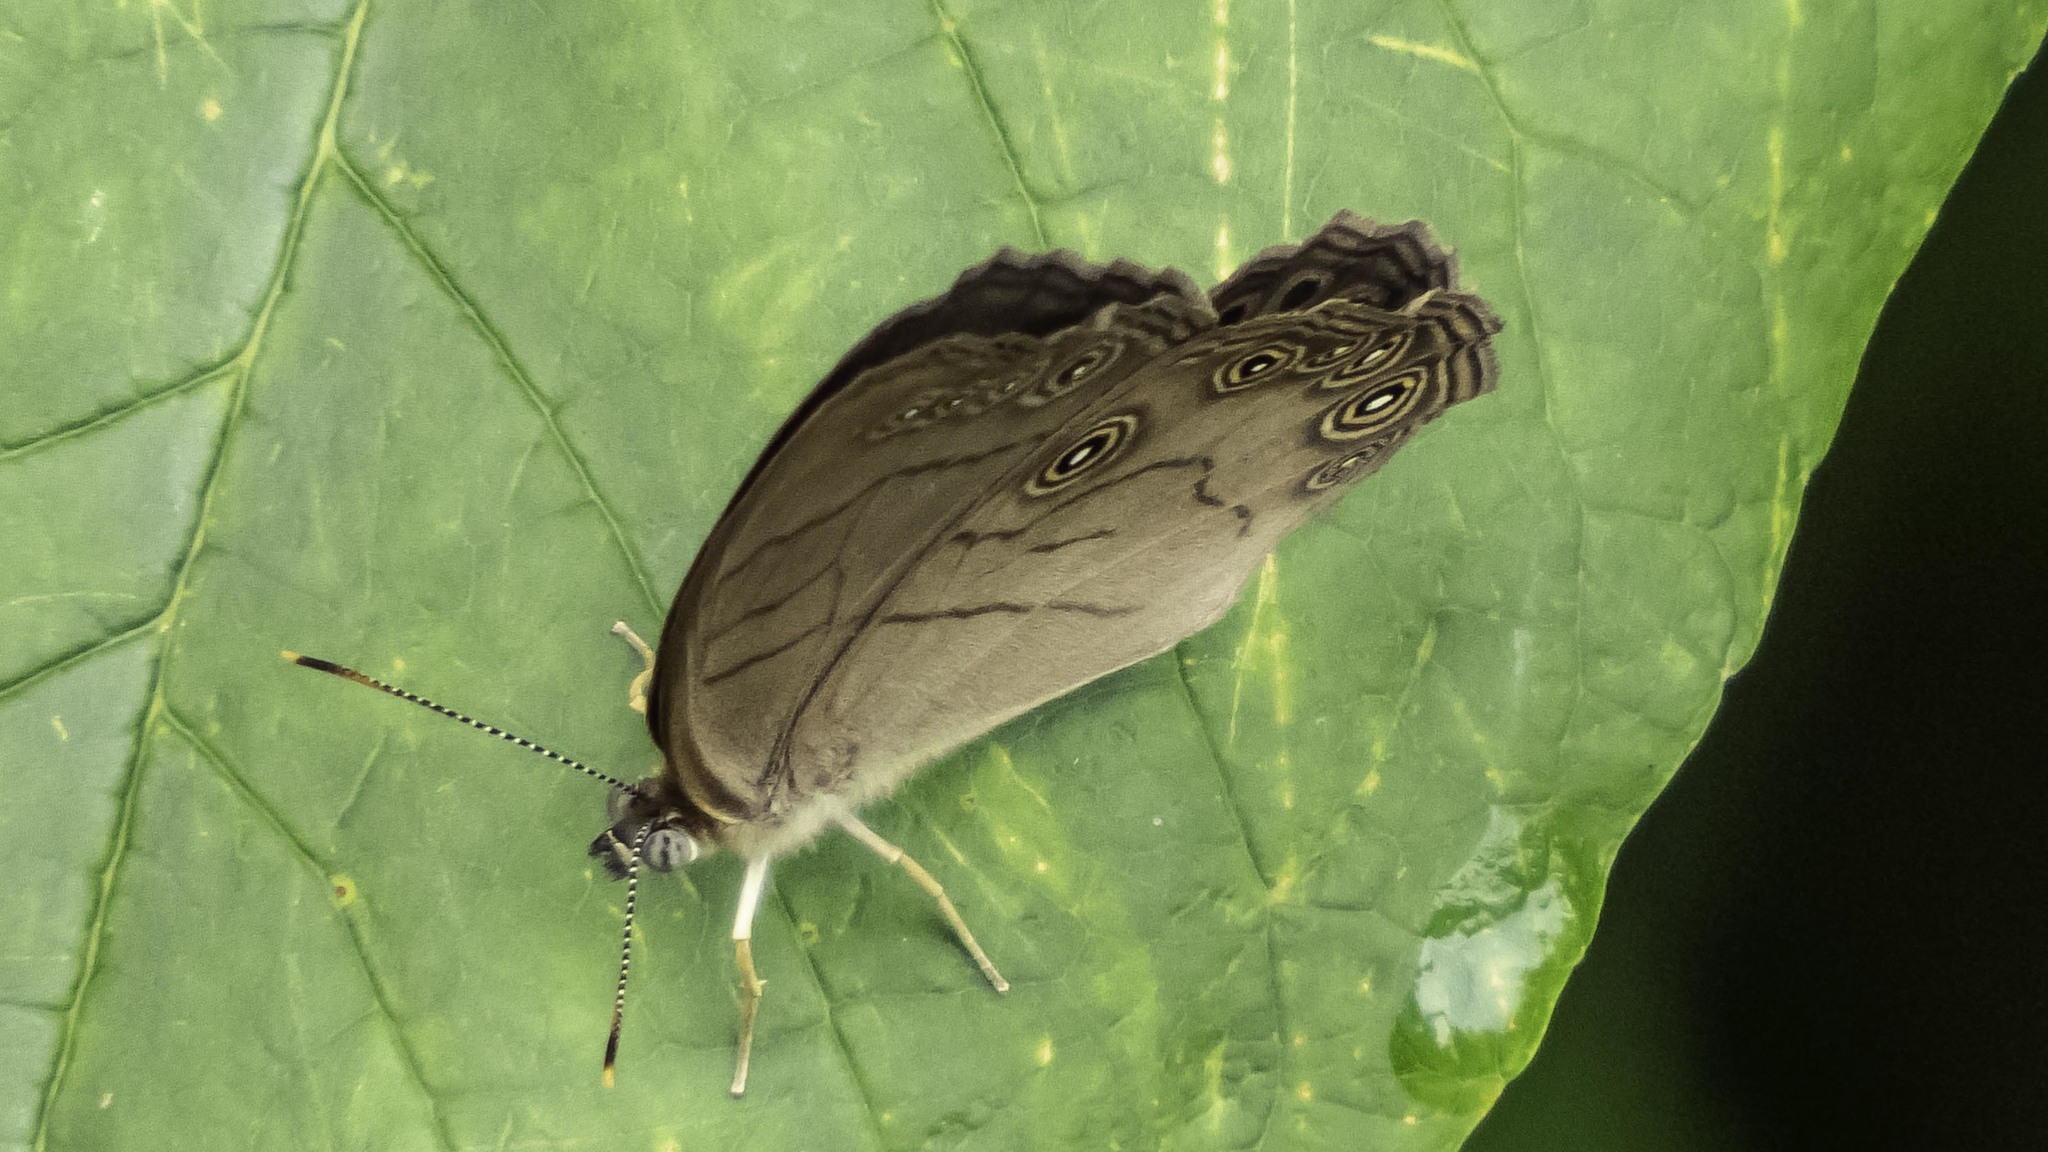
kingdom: Animalia
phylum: Arthropoda
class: Insecta
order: Lepidoptera
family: Nymphalidae
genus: Lethe
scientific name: Lethe eurydice
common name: Eyed brown
